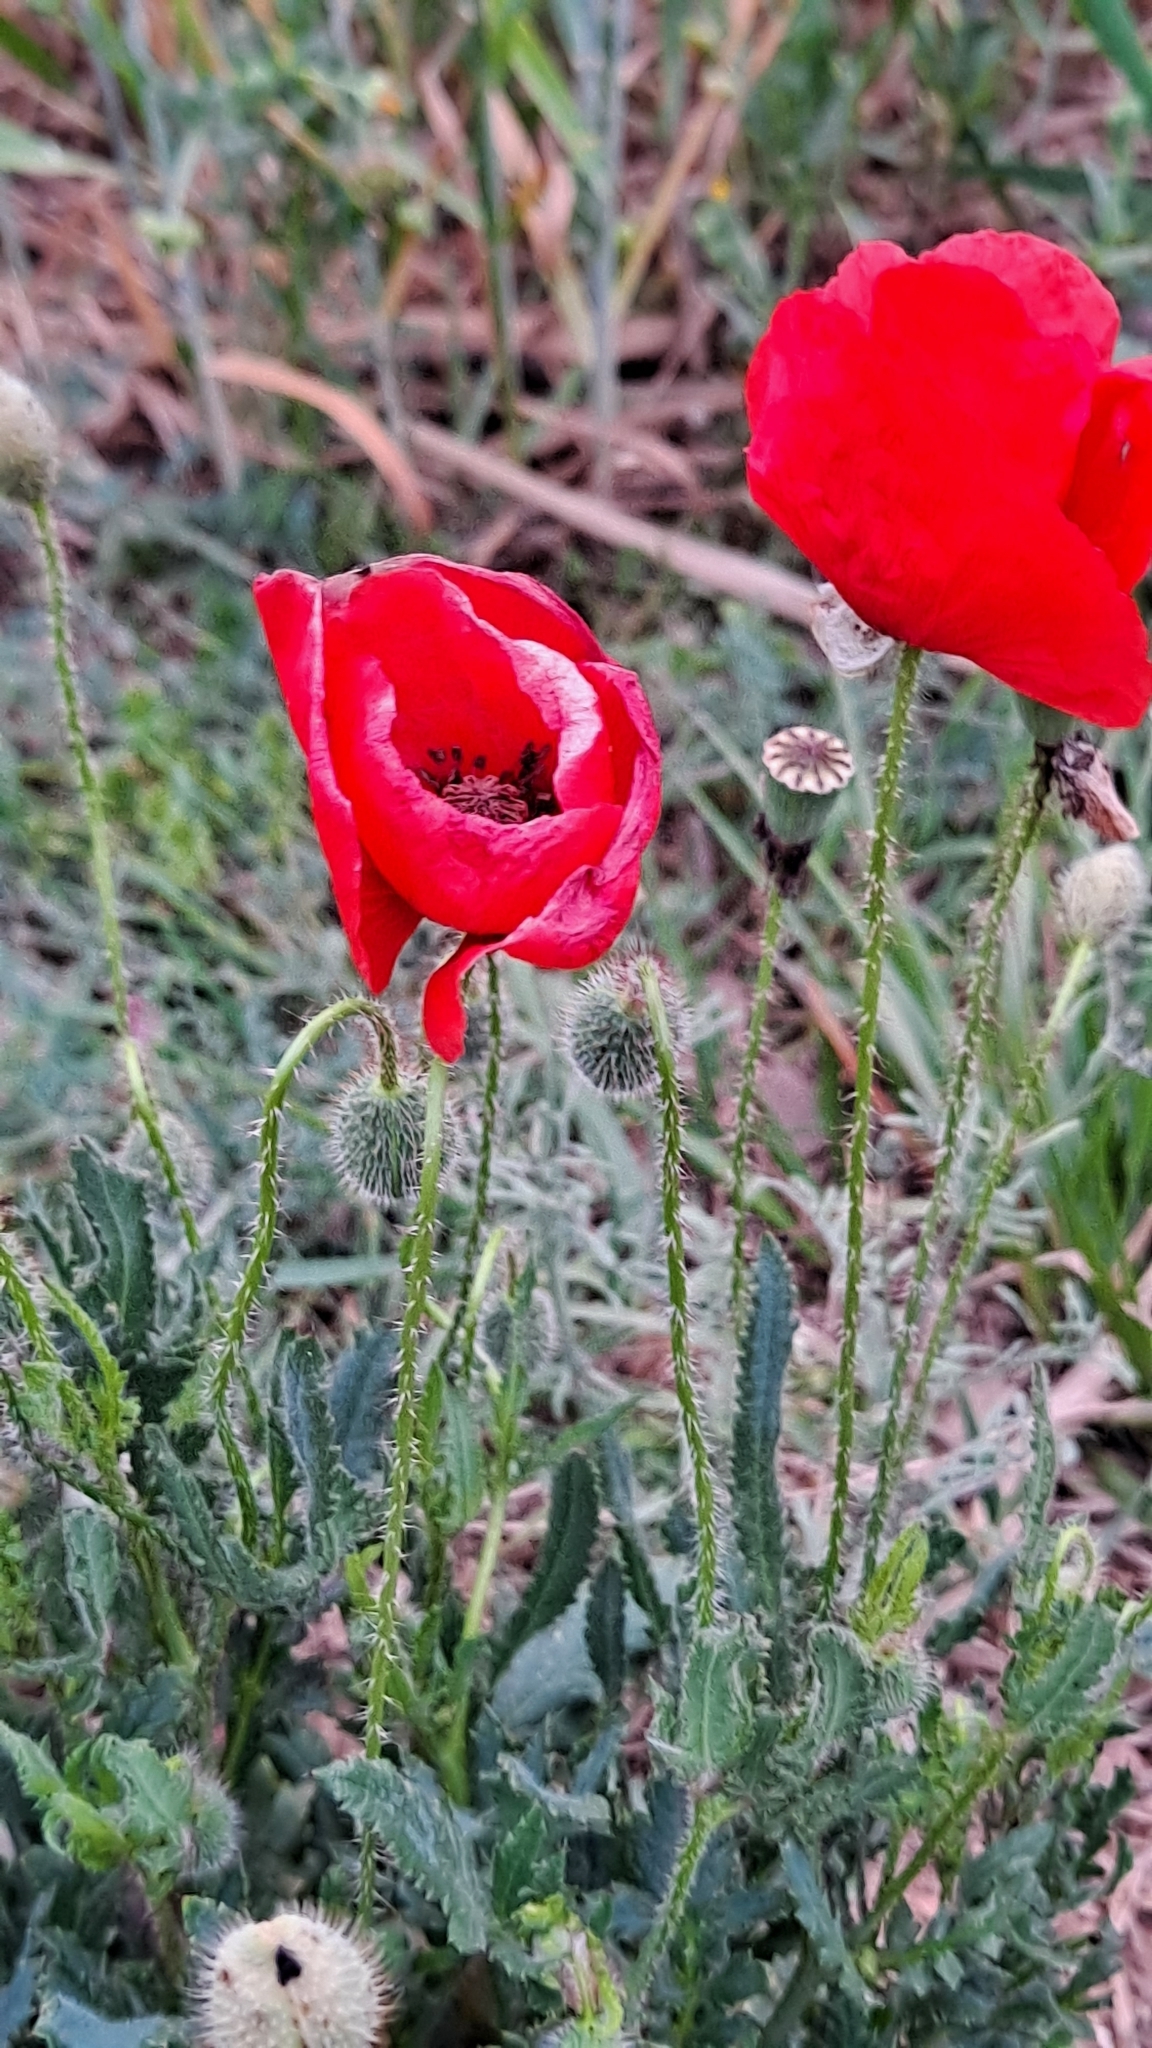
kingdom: Plantae
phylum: Tracheophyta
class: Magnoliopsida
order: Ranunculales
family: Papaveraceae
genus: Papaver
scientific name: Papaver rhoeas
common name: Corn poppy
